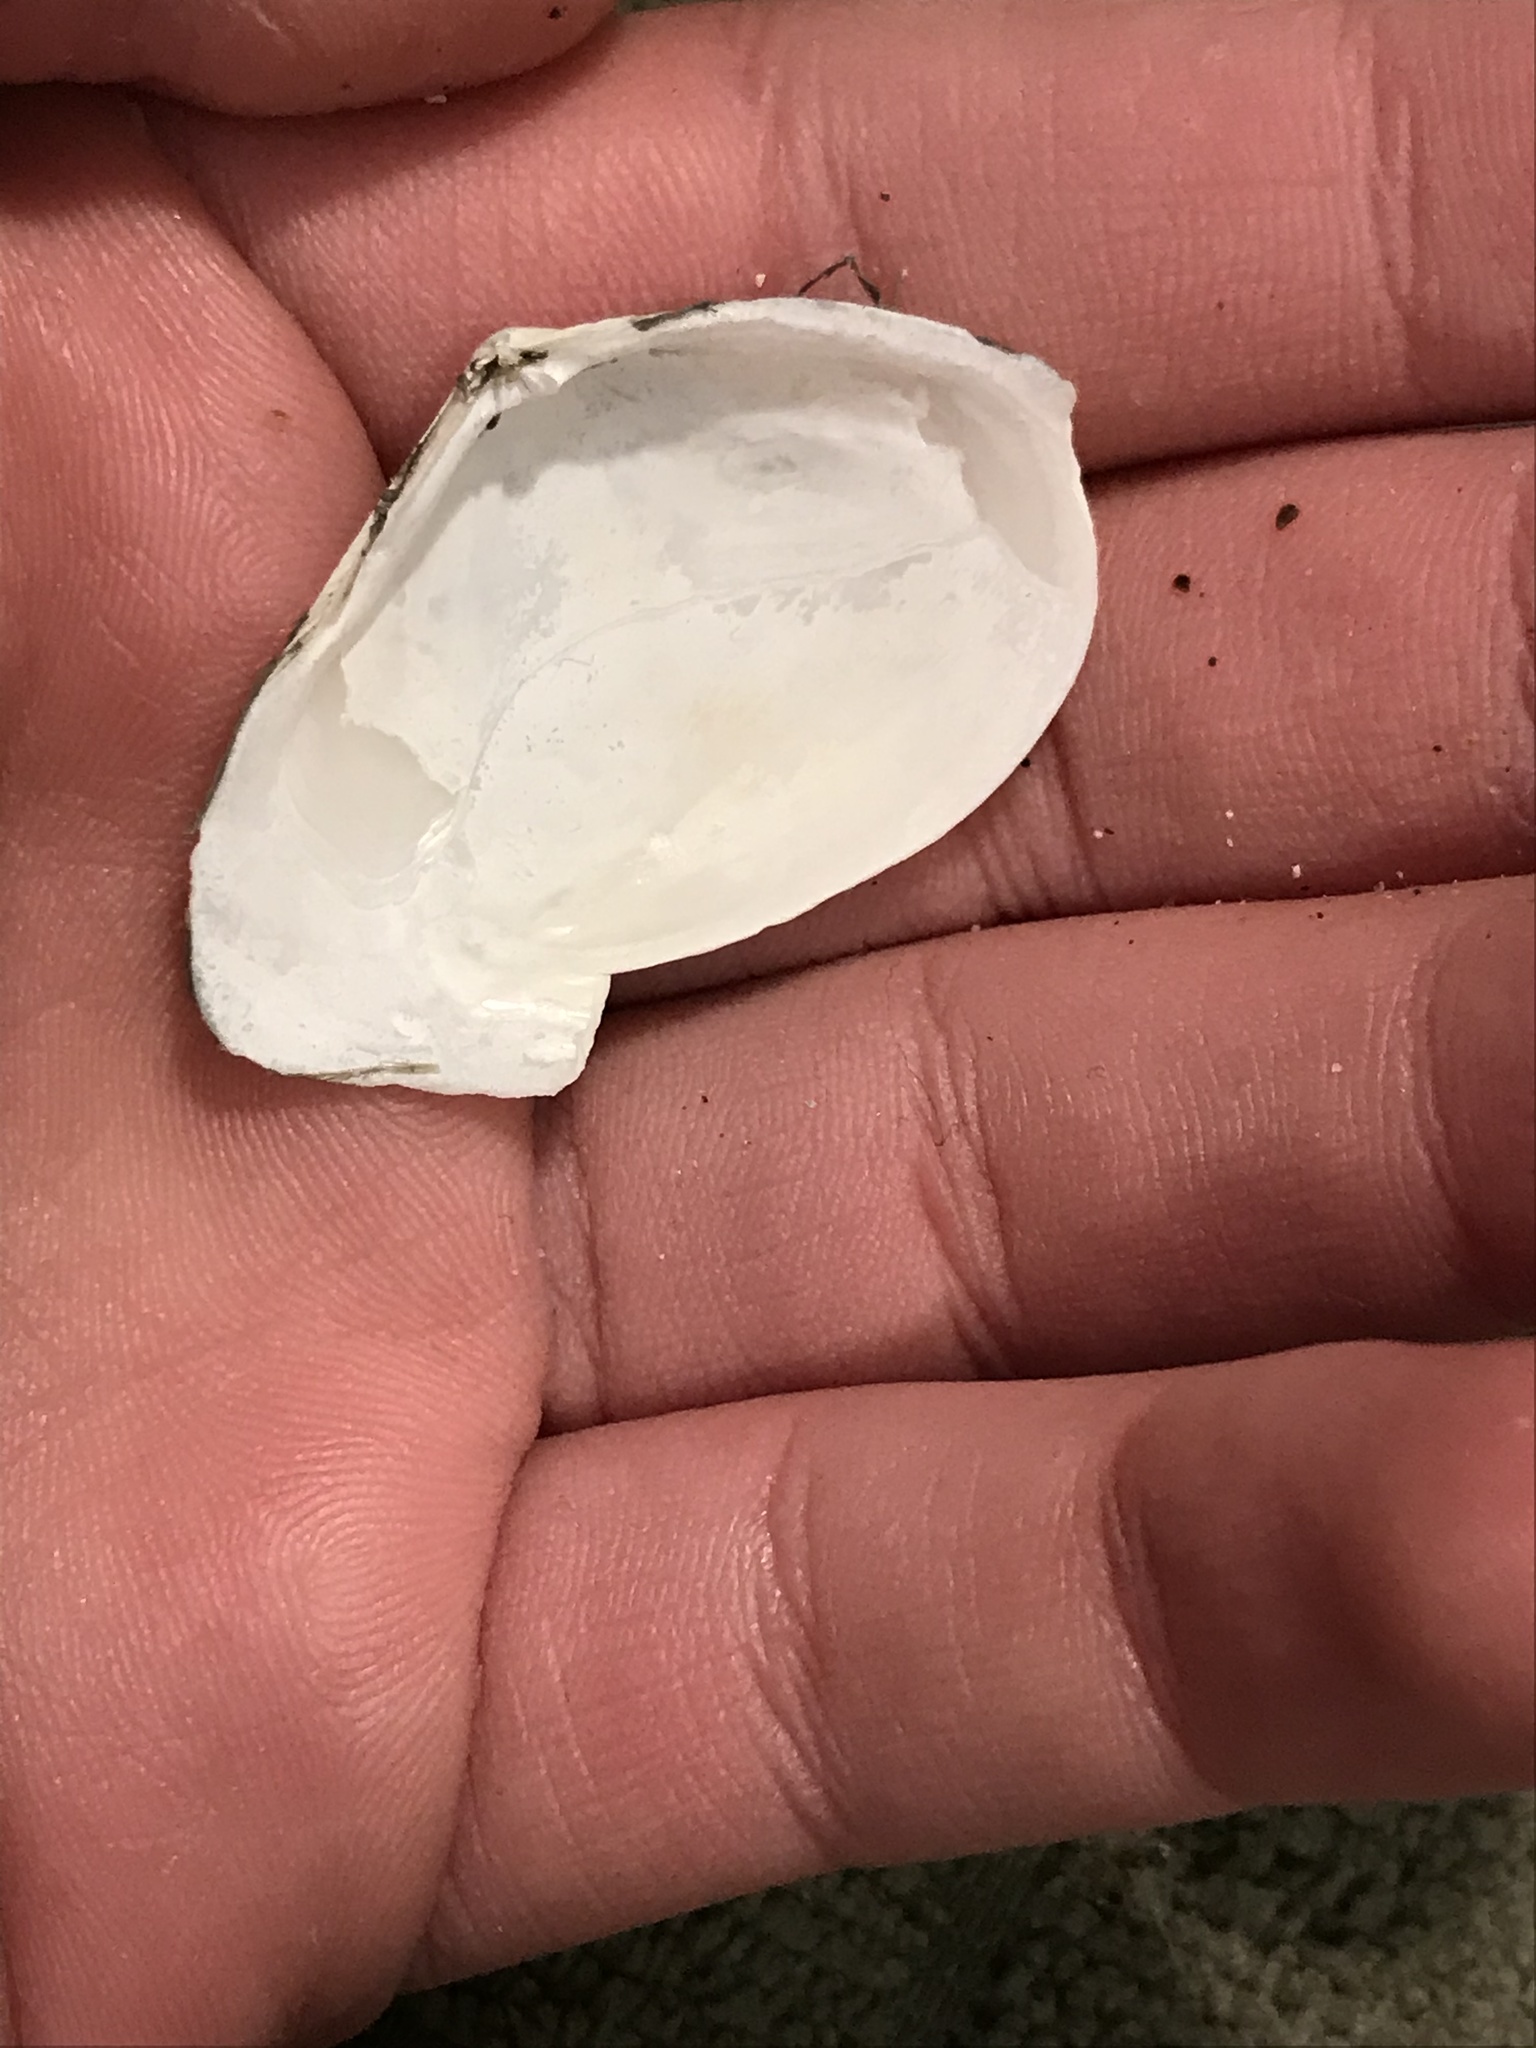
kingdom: Animalia
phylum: Mollusca
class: Bivalvia
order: Cardiida
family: Tellinidae
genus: Macoma
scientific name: Macoma nasuta
